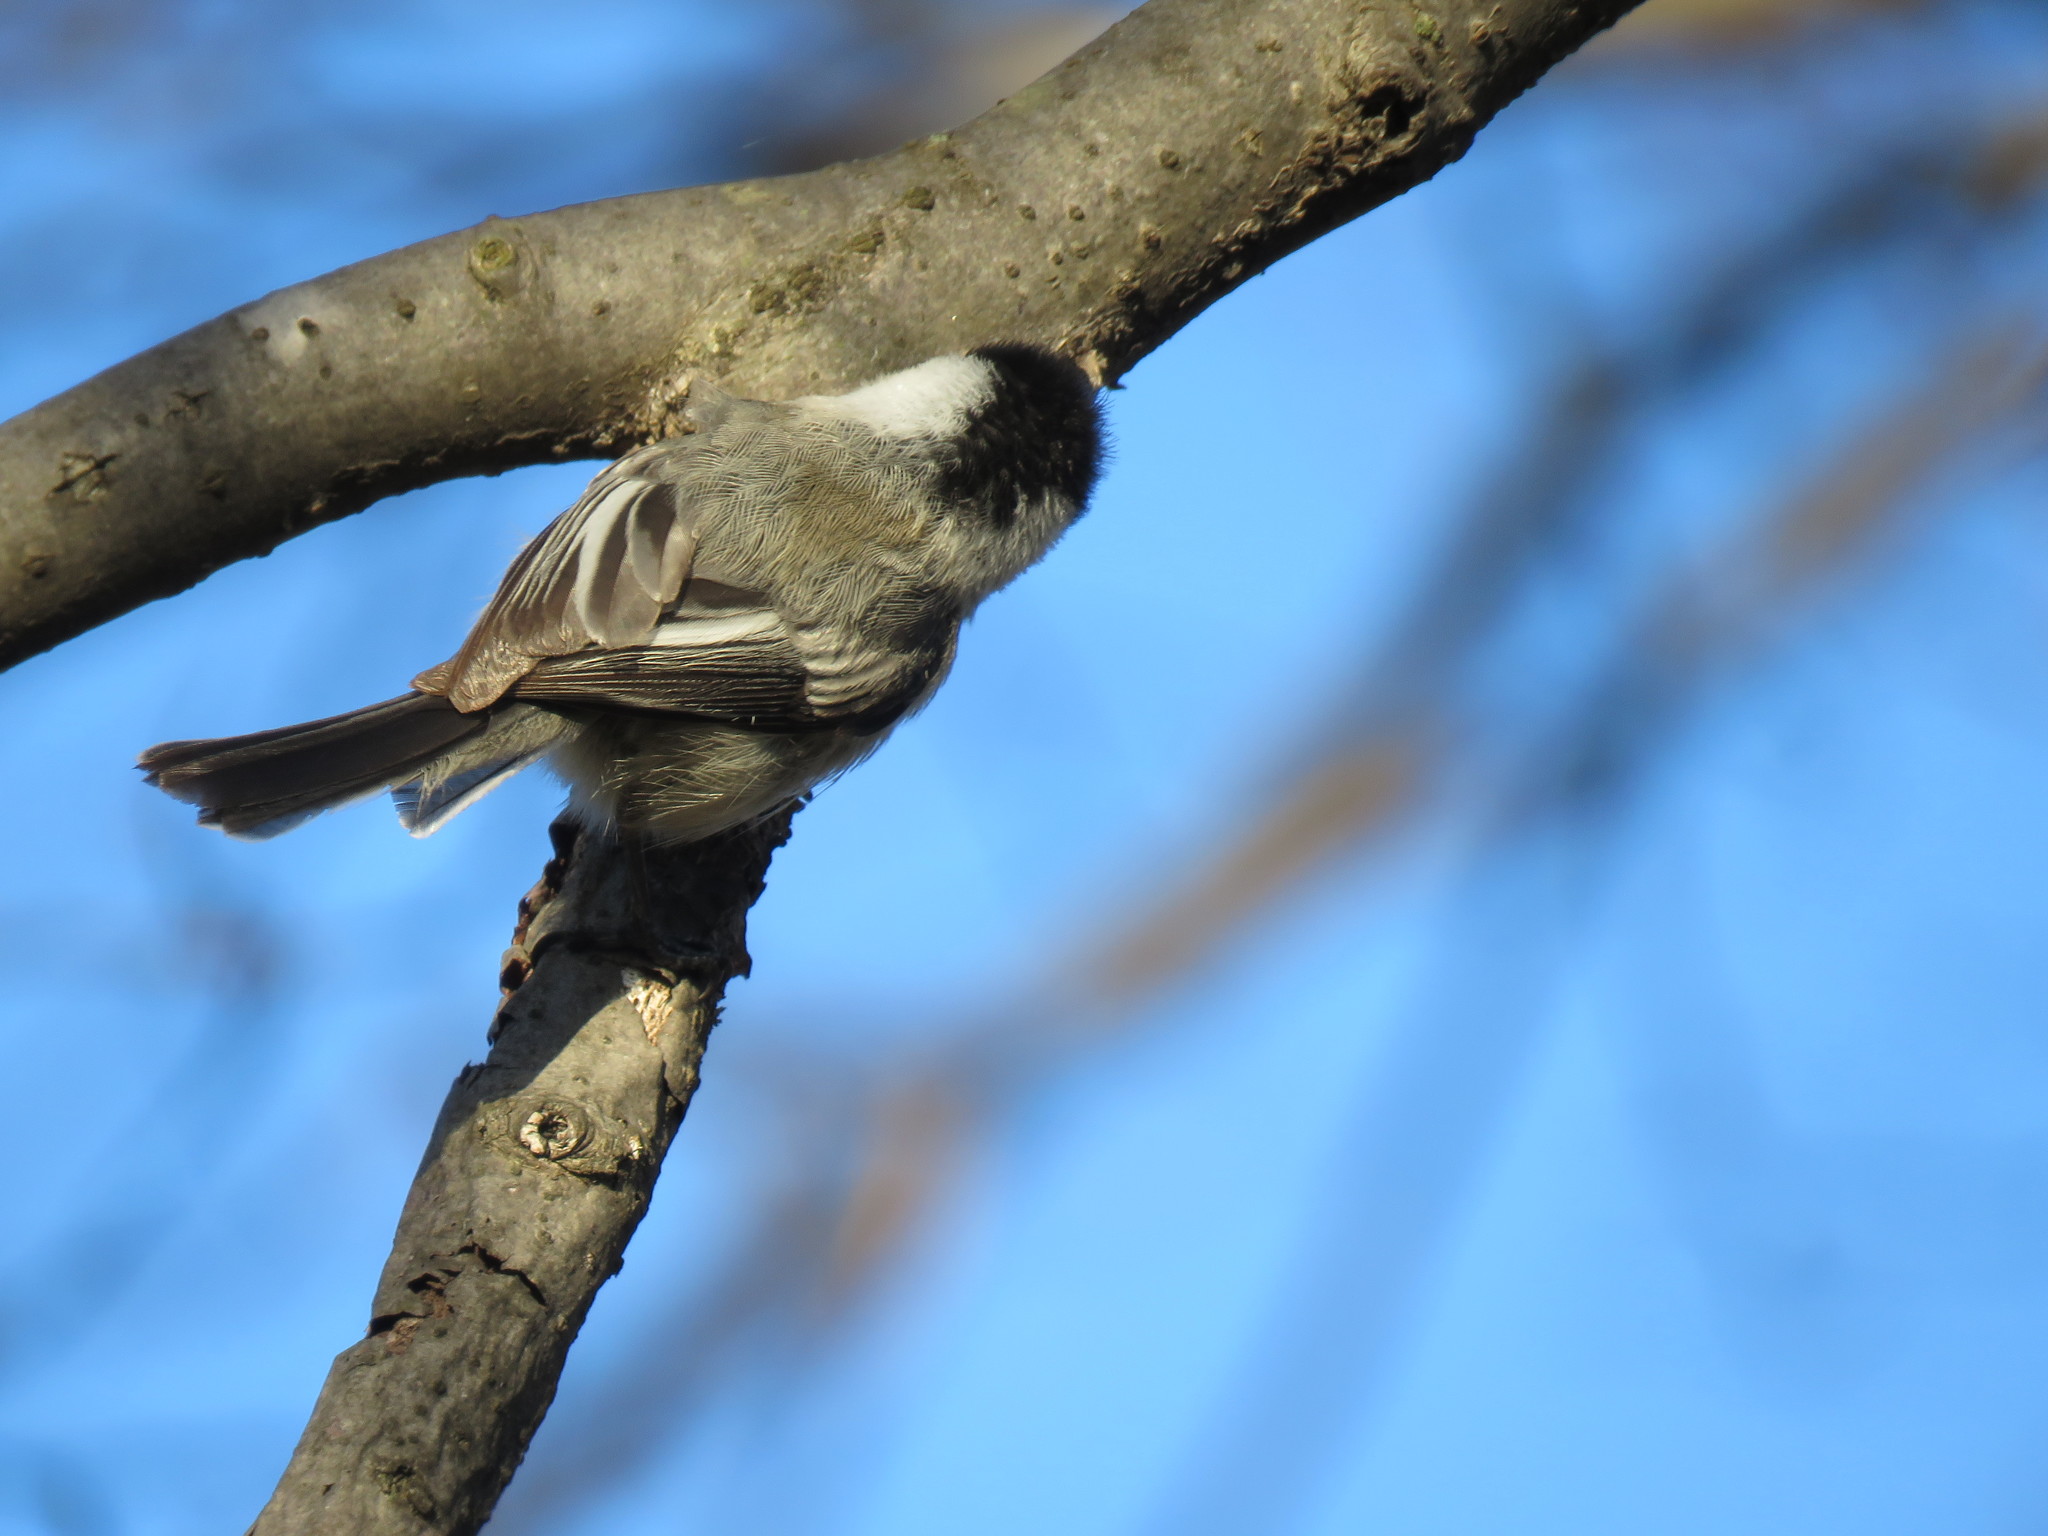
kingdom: Animalia
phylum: Chordata
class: Aves
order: Passeriformes
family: Paridae
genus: Poecile
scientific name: Poecile atricapillus
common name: Black-capped chickadee
